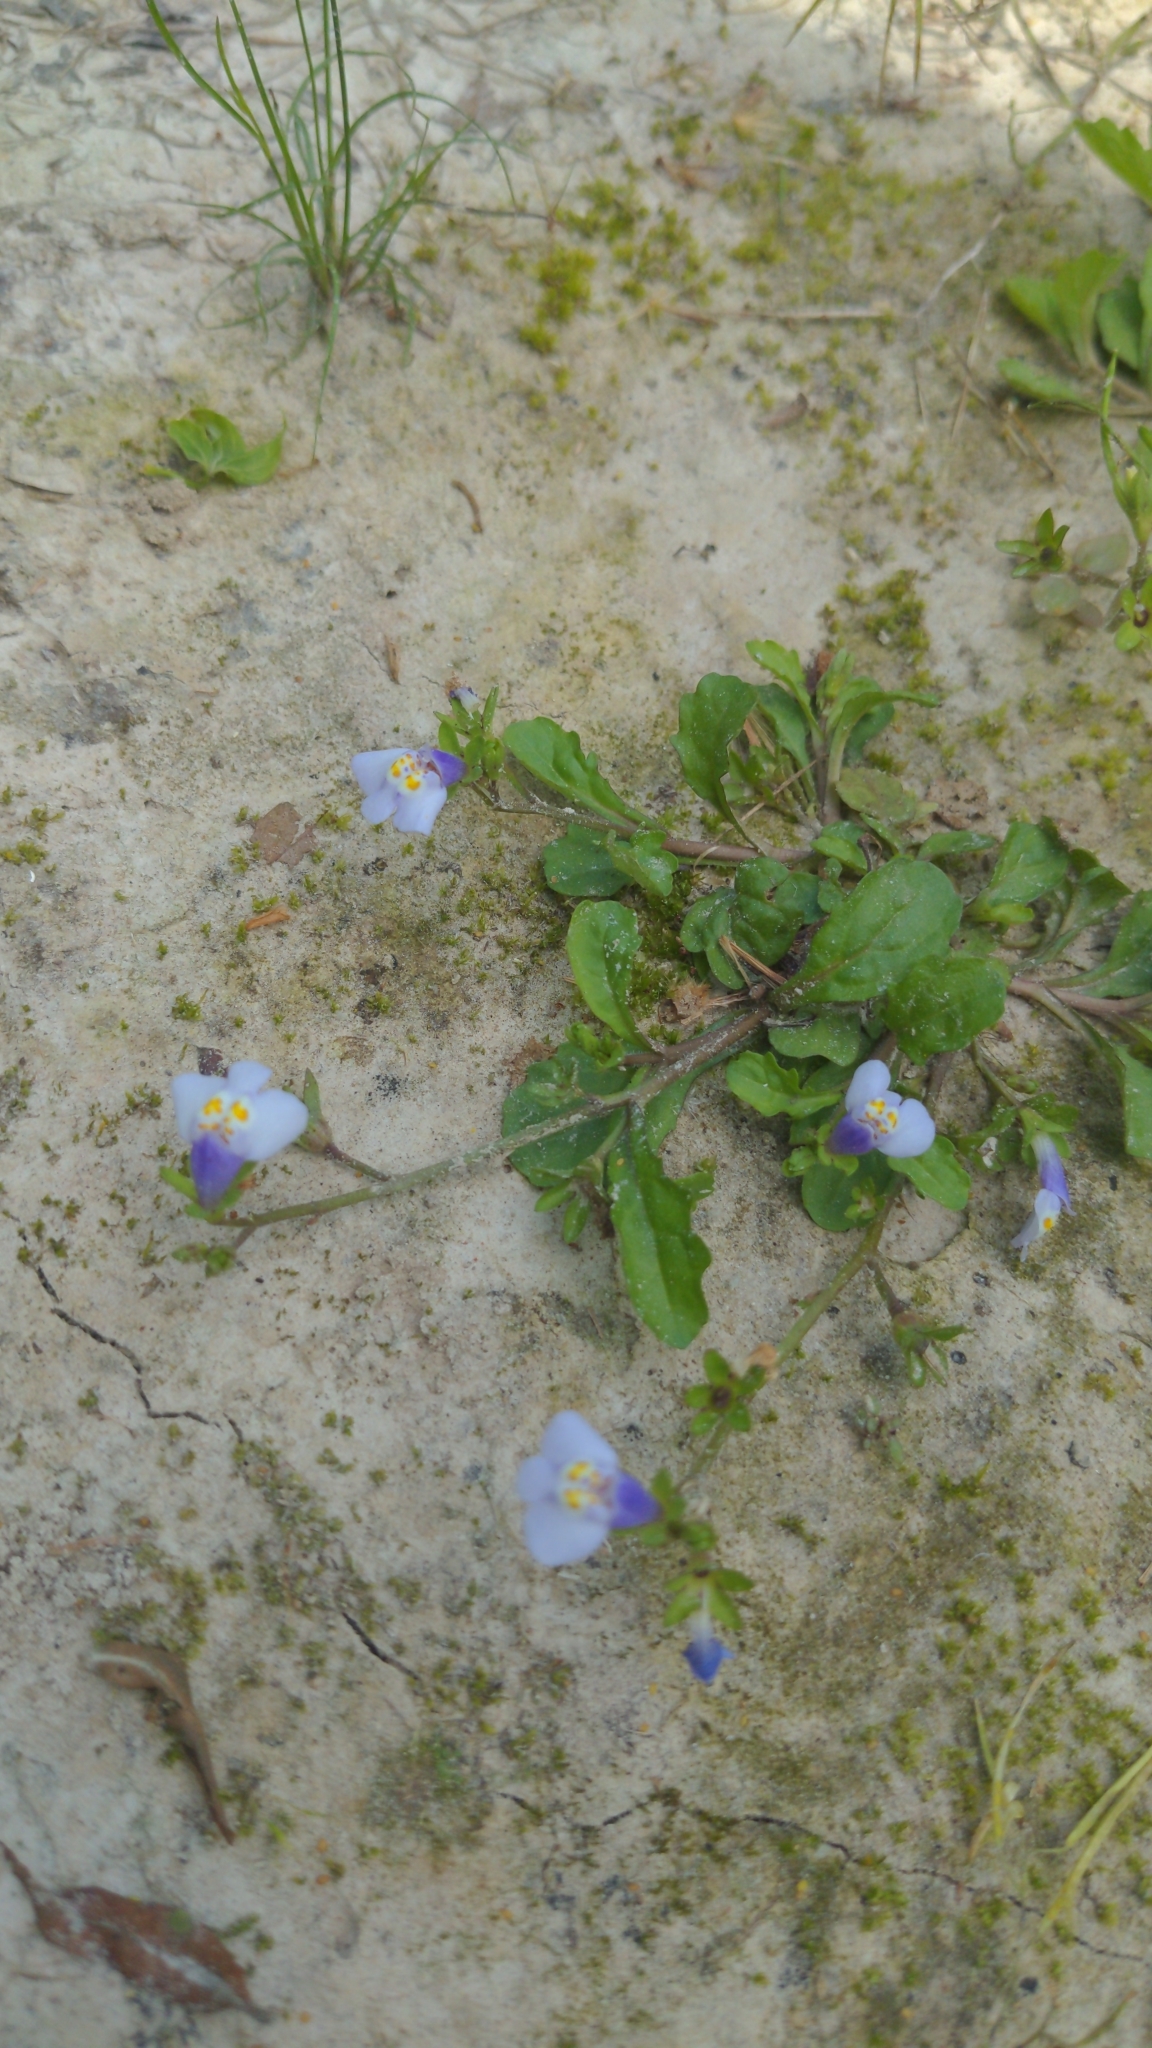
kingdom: Plantae
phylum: Tracheophyta
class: Magnoliopsida
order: Lamiales
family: Mazaceae
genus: Mazus
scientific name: Mazus pumilus
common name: Japanese mazus
